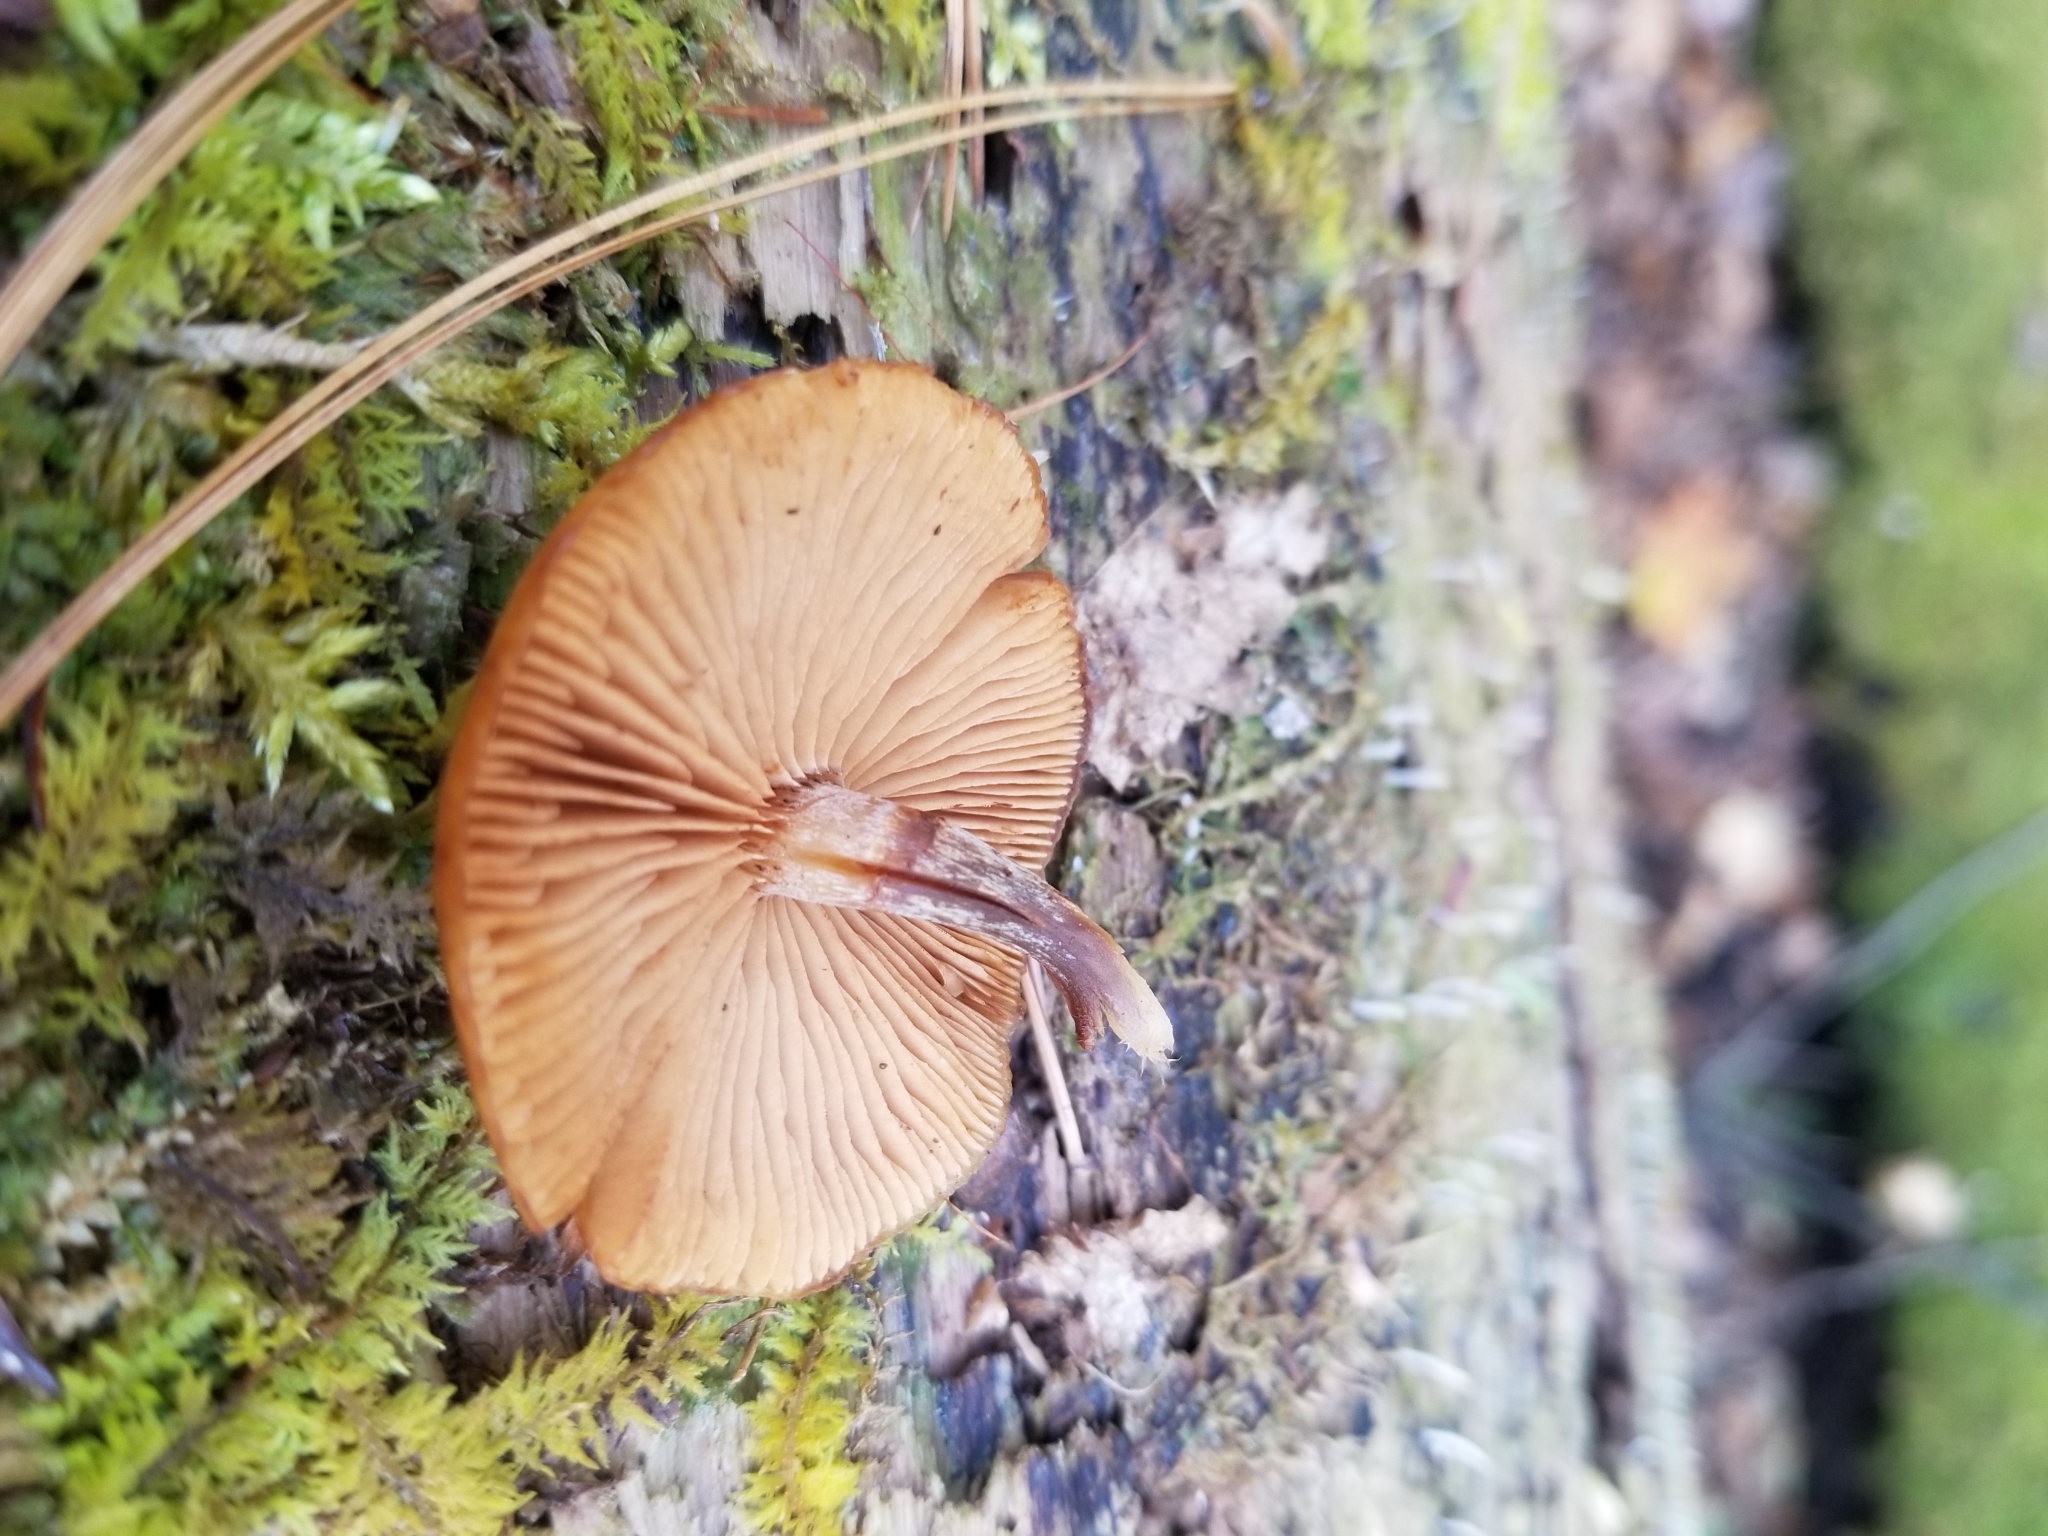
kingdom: Fungi
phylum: Basidiomycota
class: Agaricomycetes
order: Agaricales
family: Hymenogastraceae
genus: Galerina
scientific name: Galerina marginata
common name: Funeral bell
